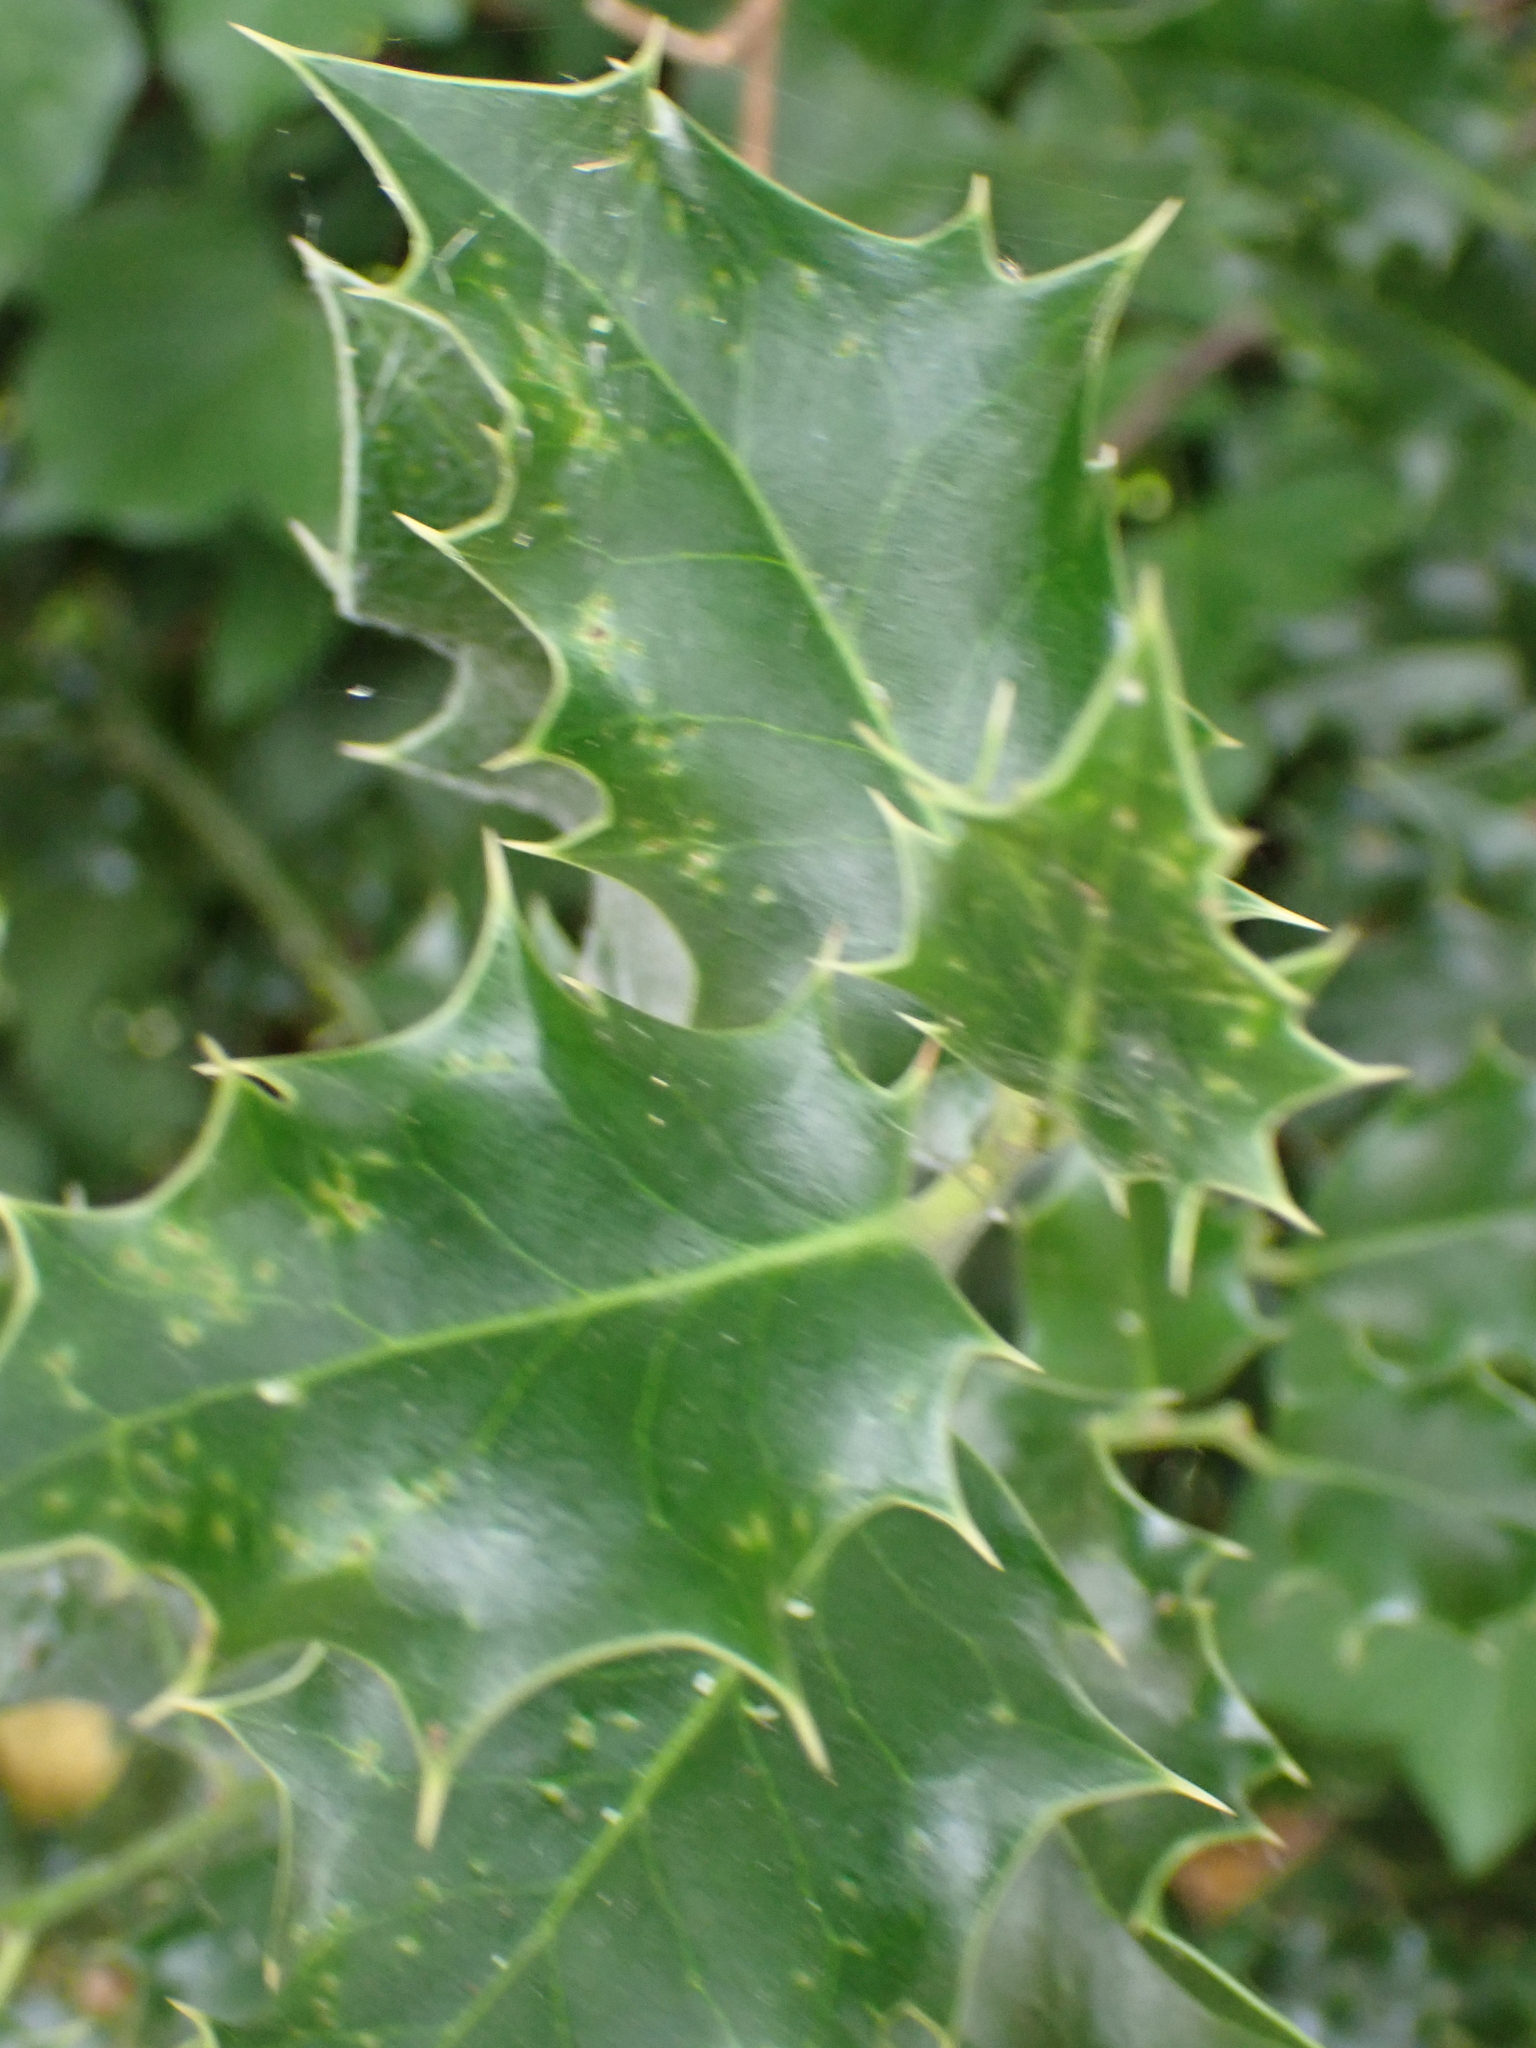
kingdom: Plantae
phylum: Tracheophyta
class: Magnoliopsida
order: Aquifoliales
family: Aquifoliaceae
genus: Ilex
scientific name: Ilex aquifolium
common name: English holly
